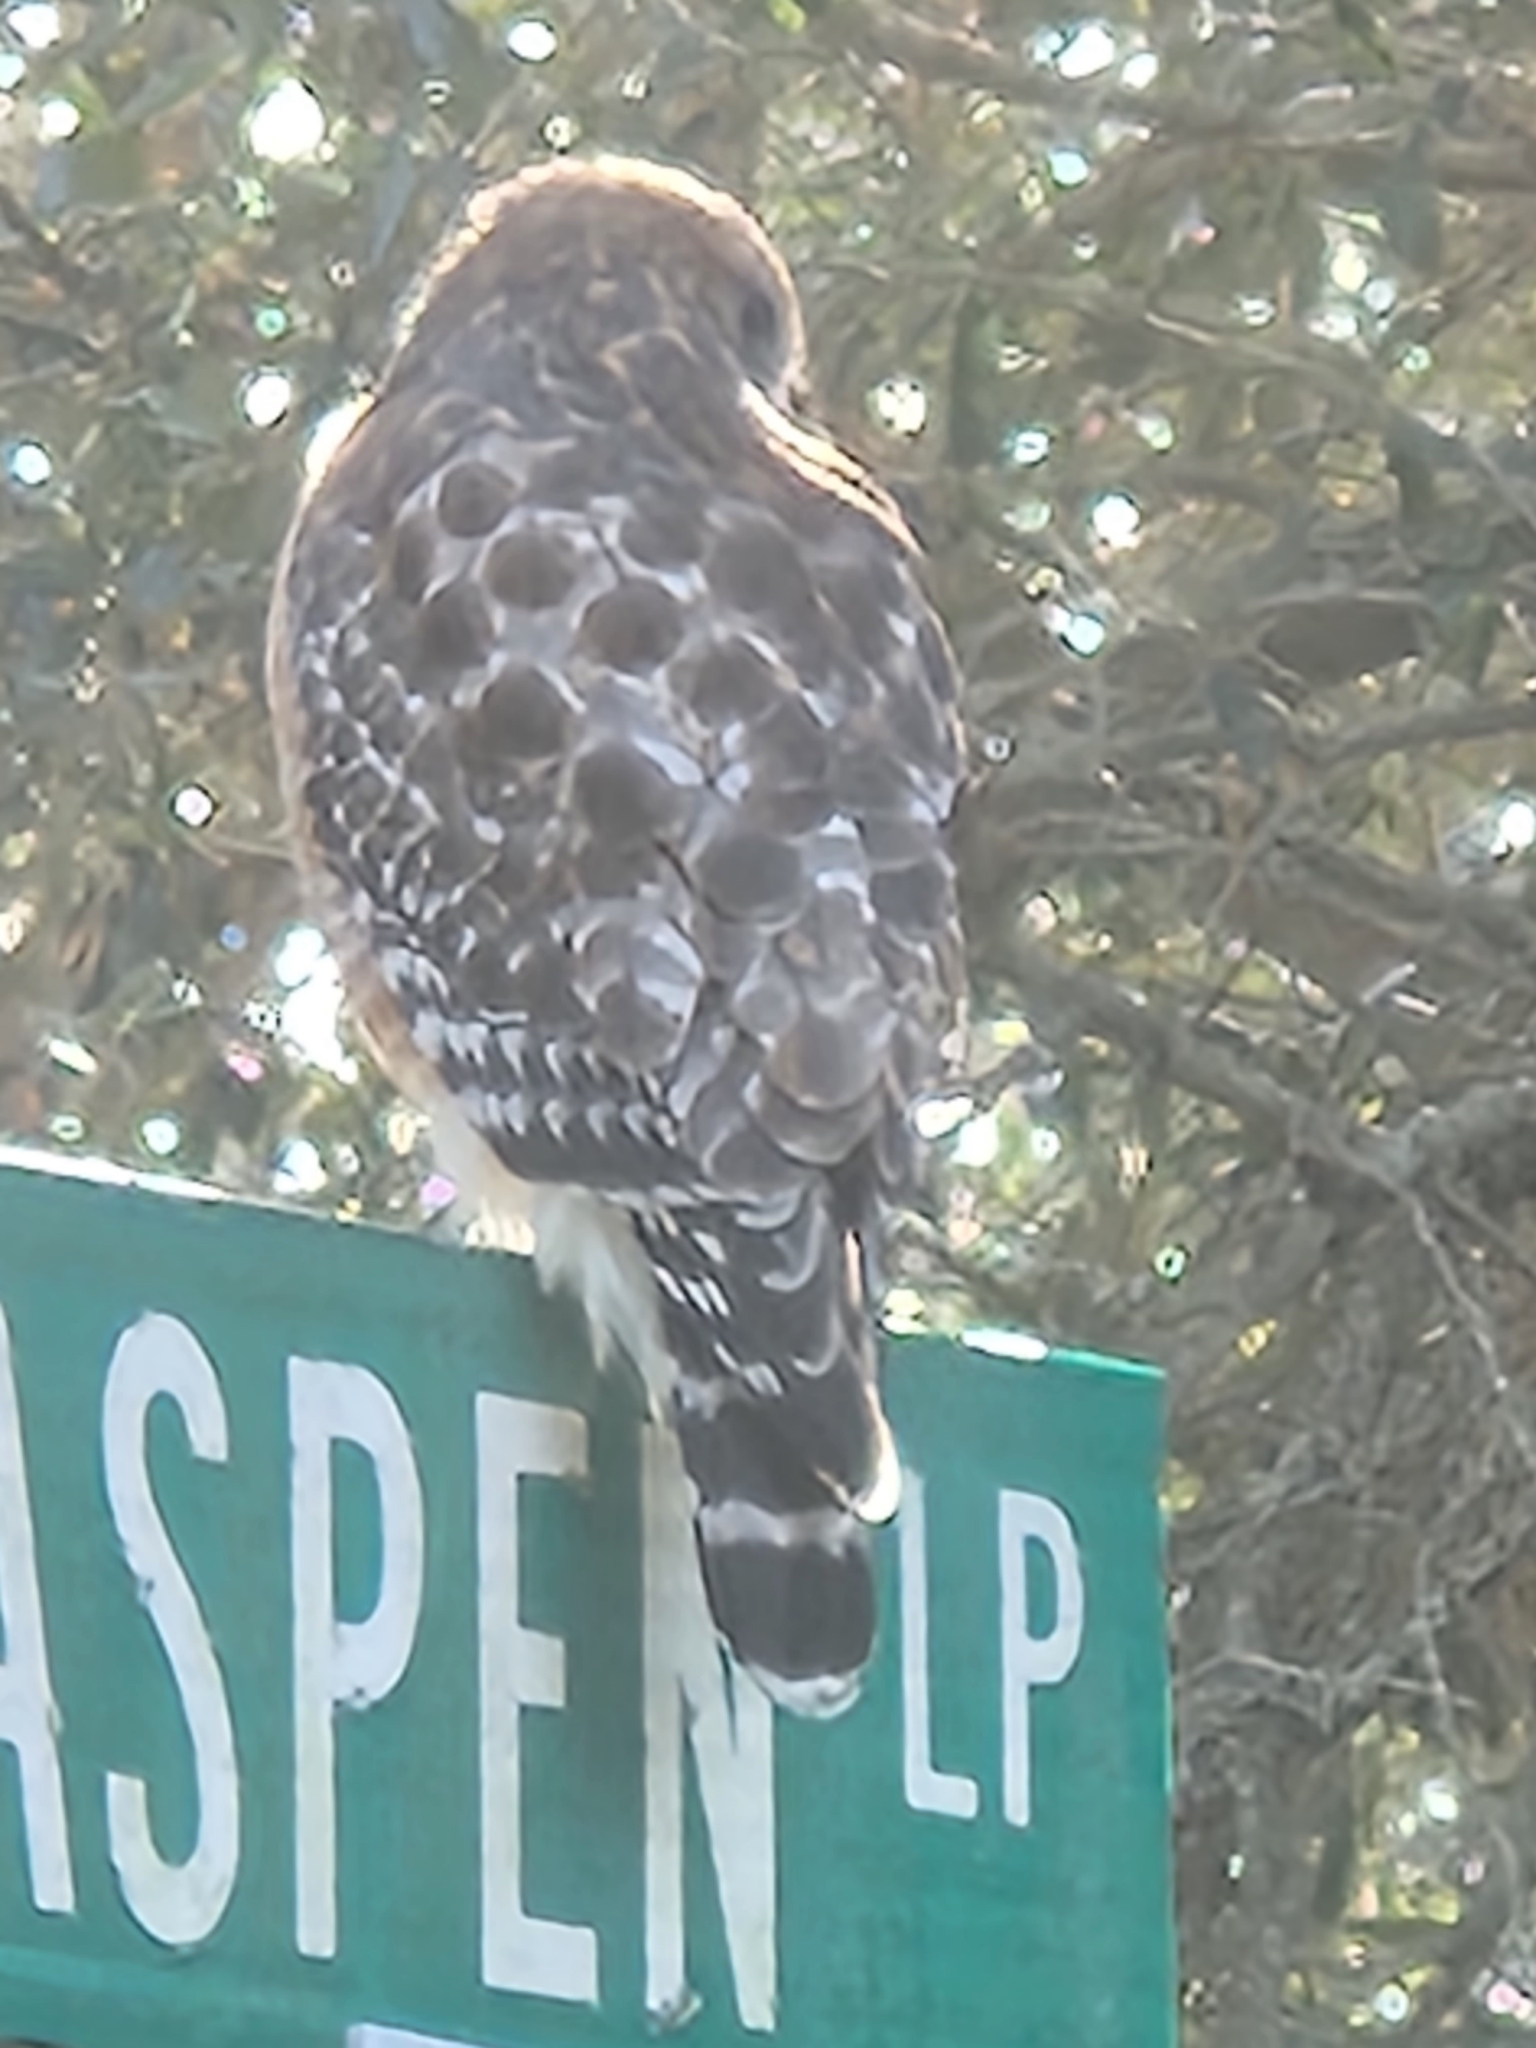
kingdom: Animalia
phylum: Chordata
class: Aves
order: Accipitriformes
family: Accipitridae
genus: Buteo
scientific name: Buteo lineatus
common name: Red-shouldered hawk
